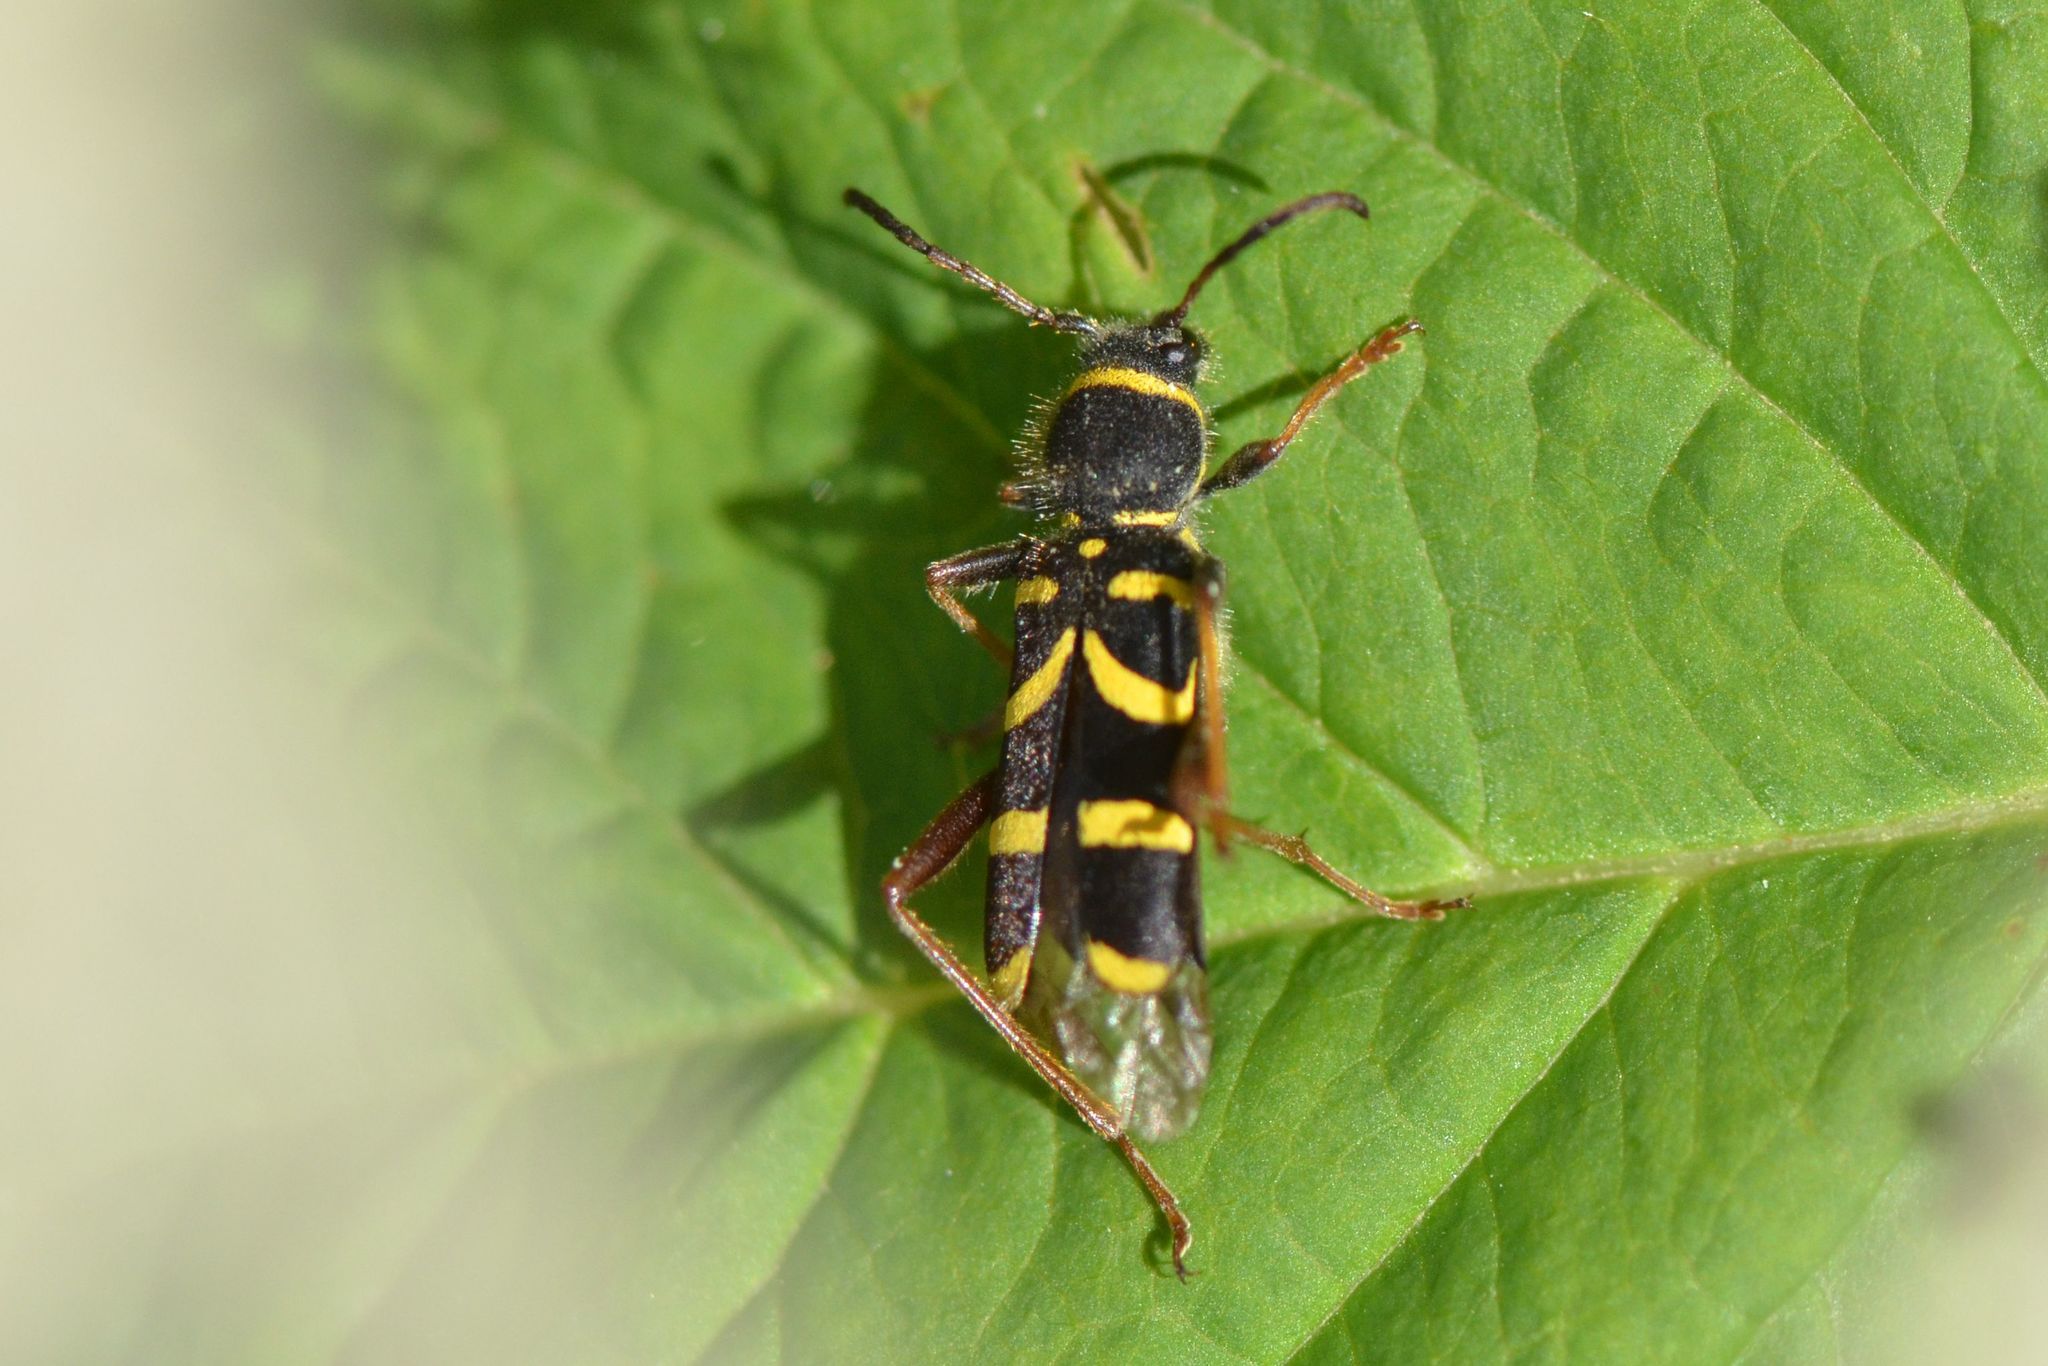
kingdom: Animalia
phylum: Arthropoda
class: Insecta
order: Coleoptera
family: Cerambycidae
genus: Clytus
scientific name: Clytus arietis
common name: Wasp beetle
